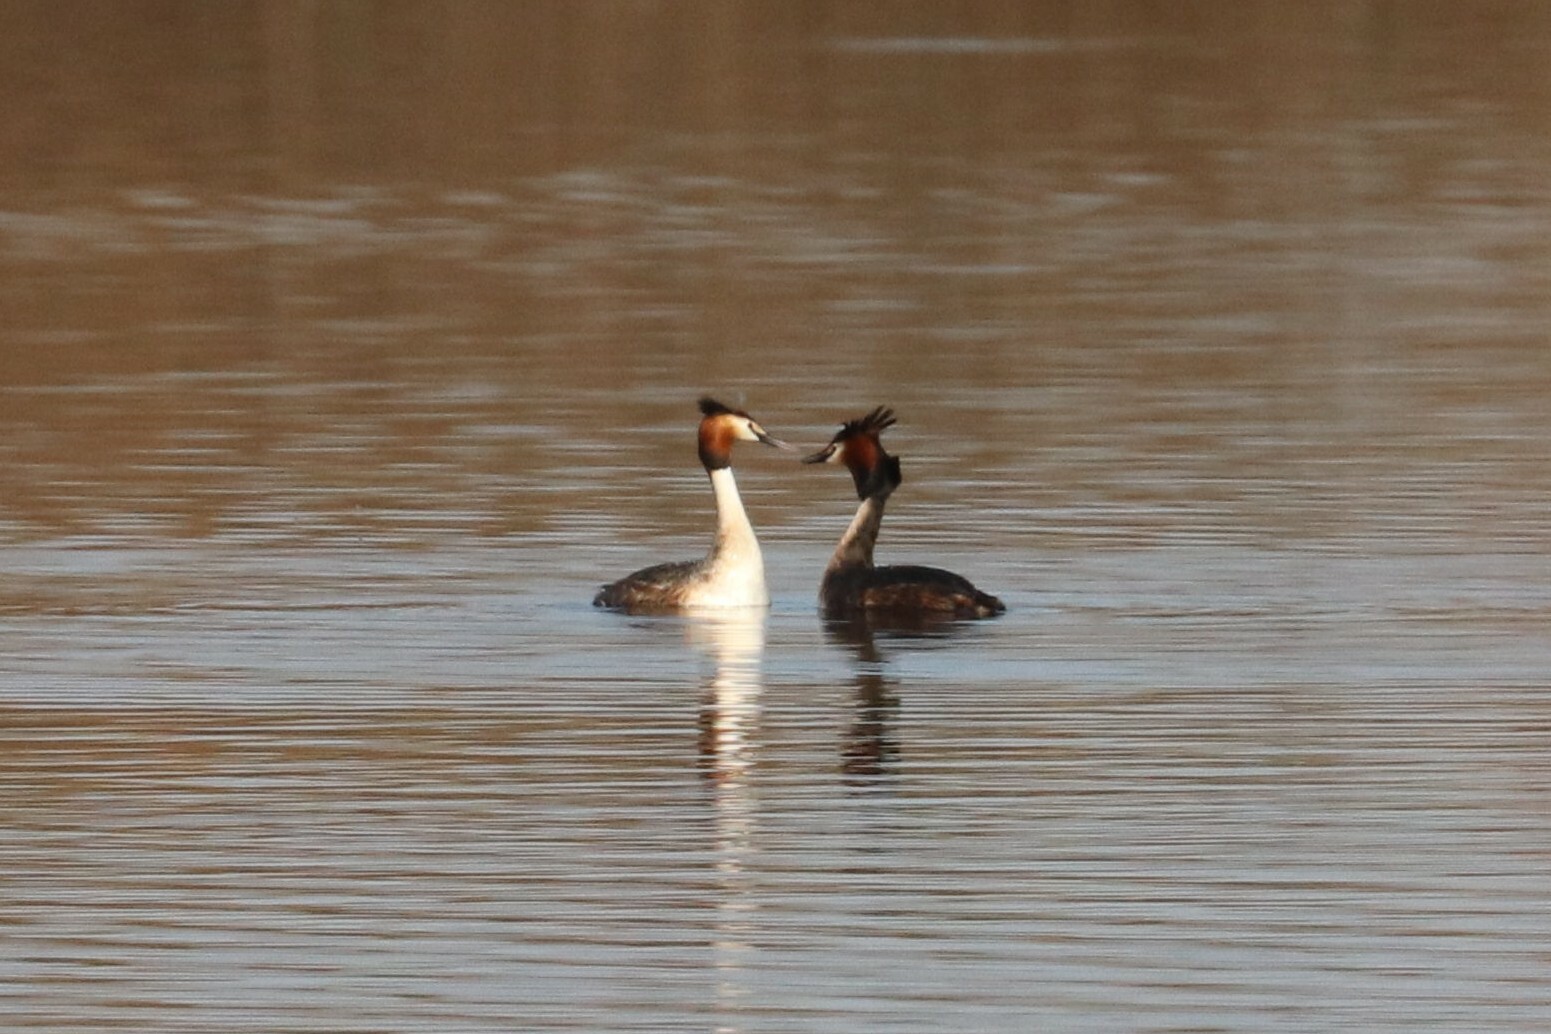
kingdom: Animalia
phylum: Chordata
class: Aves
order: Podicipediformes
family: Podicipedidae
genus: Podiceps
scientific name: Podiceps cristatus
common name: Great crested grebe
